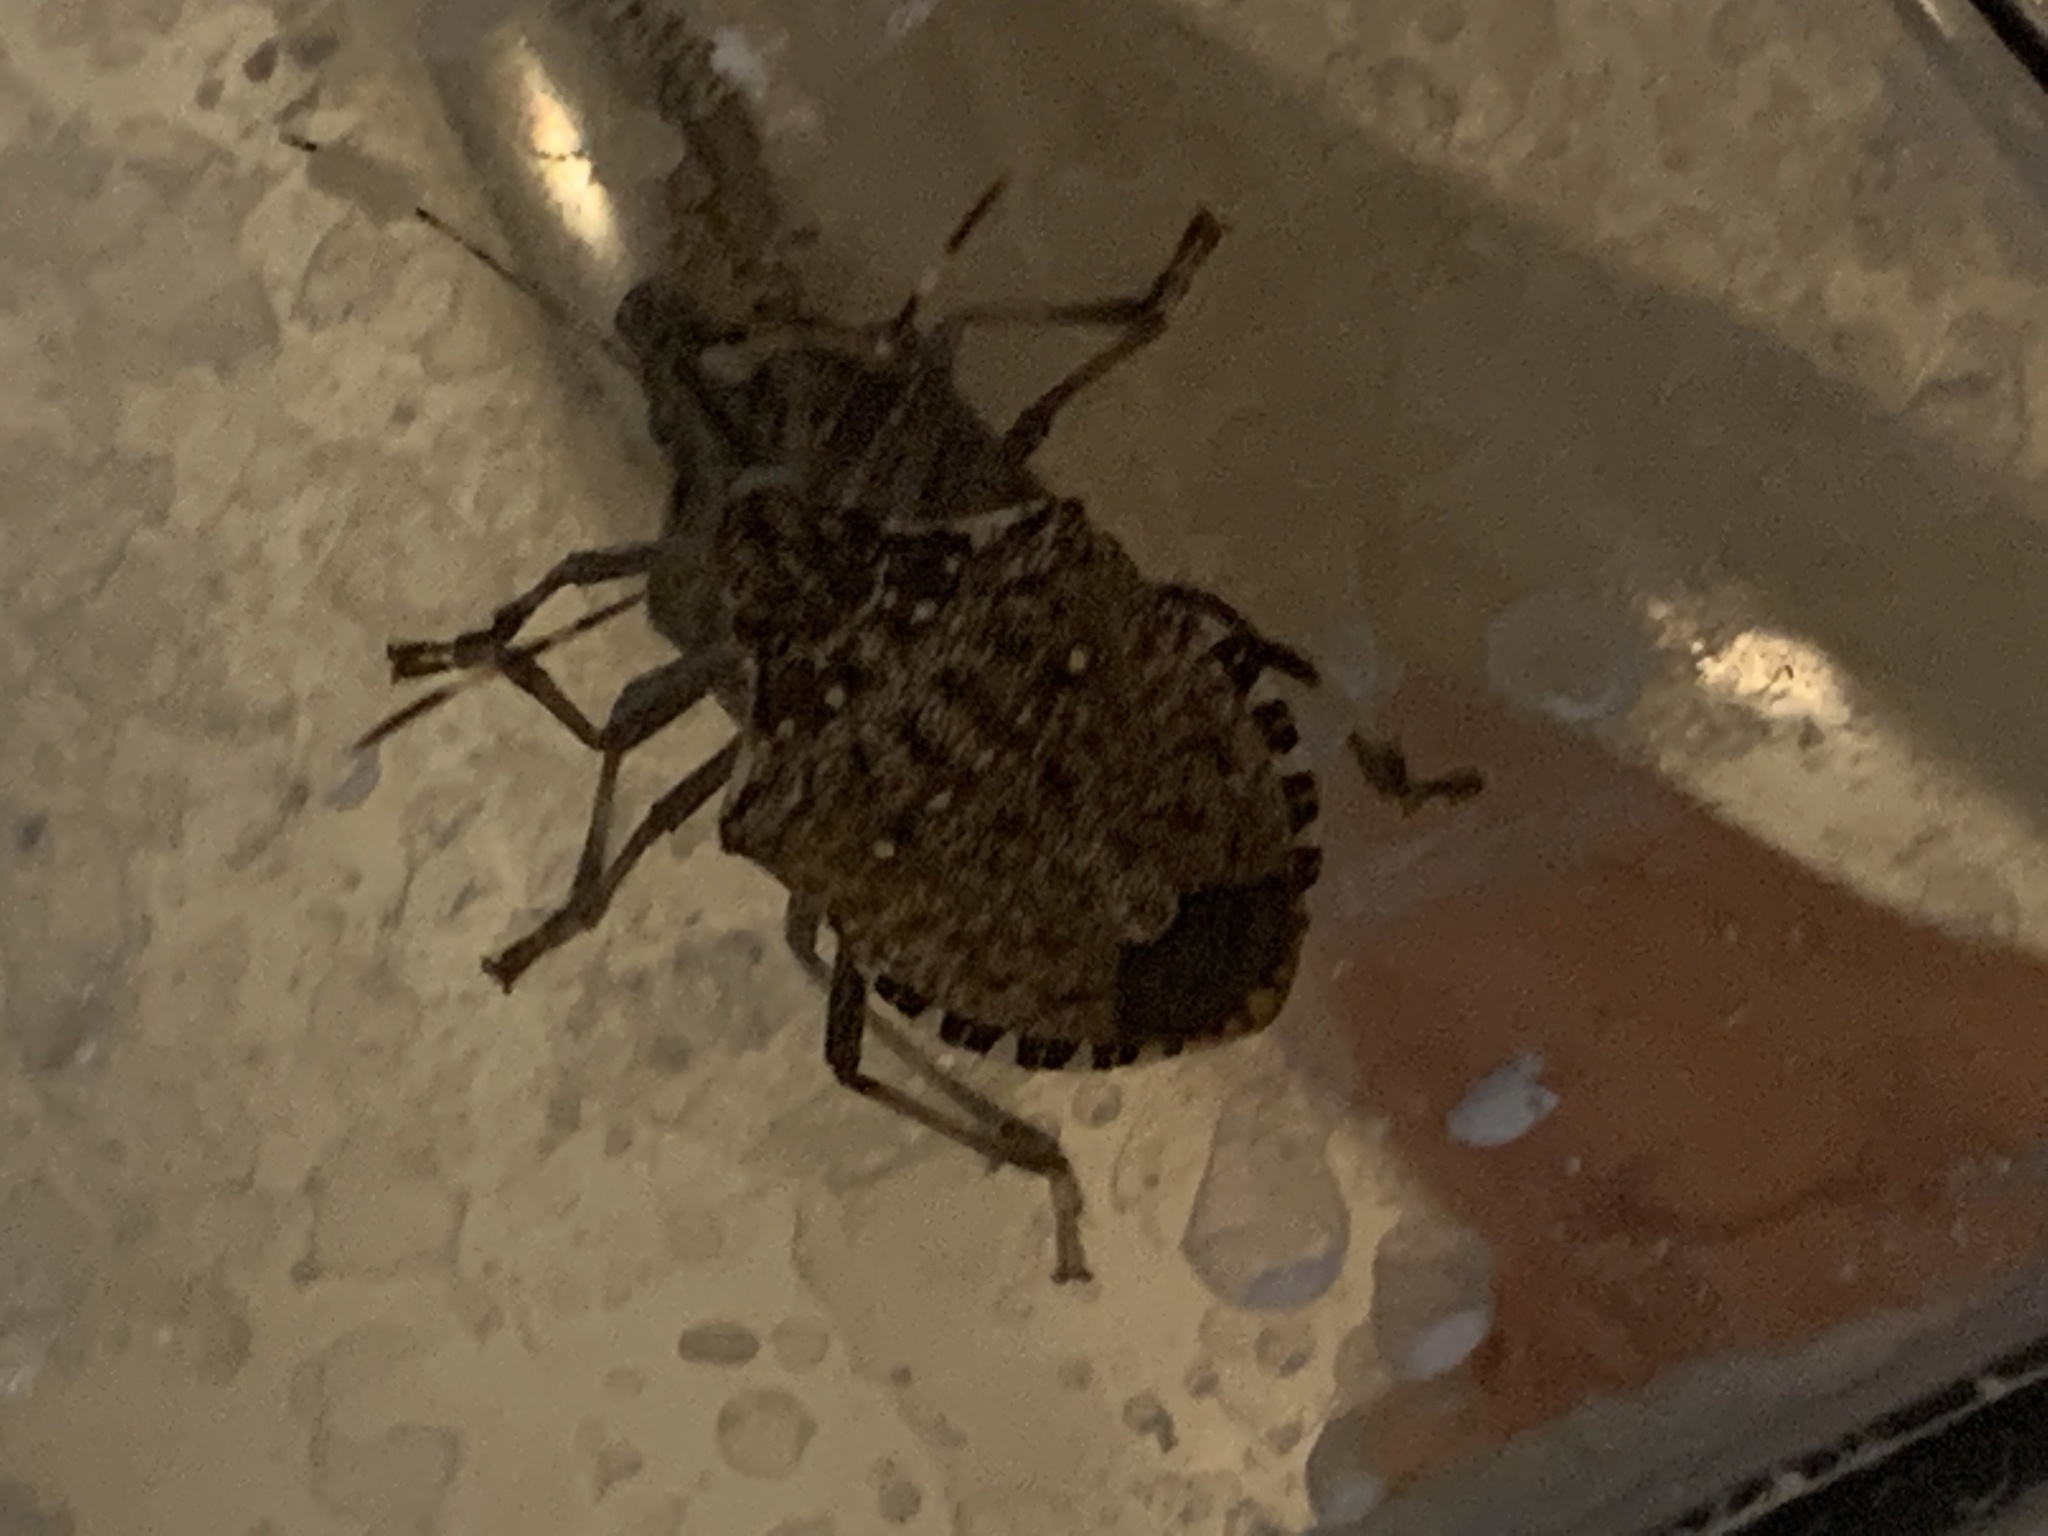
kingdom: Animalia
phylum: Arthropoda
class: Insecta
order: Hemiptera
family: Pentatomidae
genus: Halyomorpha
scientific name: Halyomorpha halys
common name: Brown marmorated stink bug
